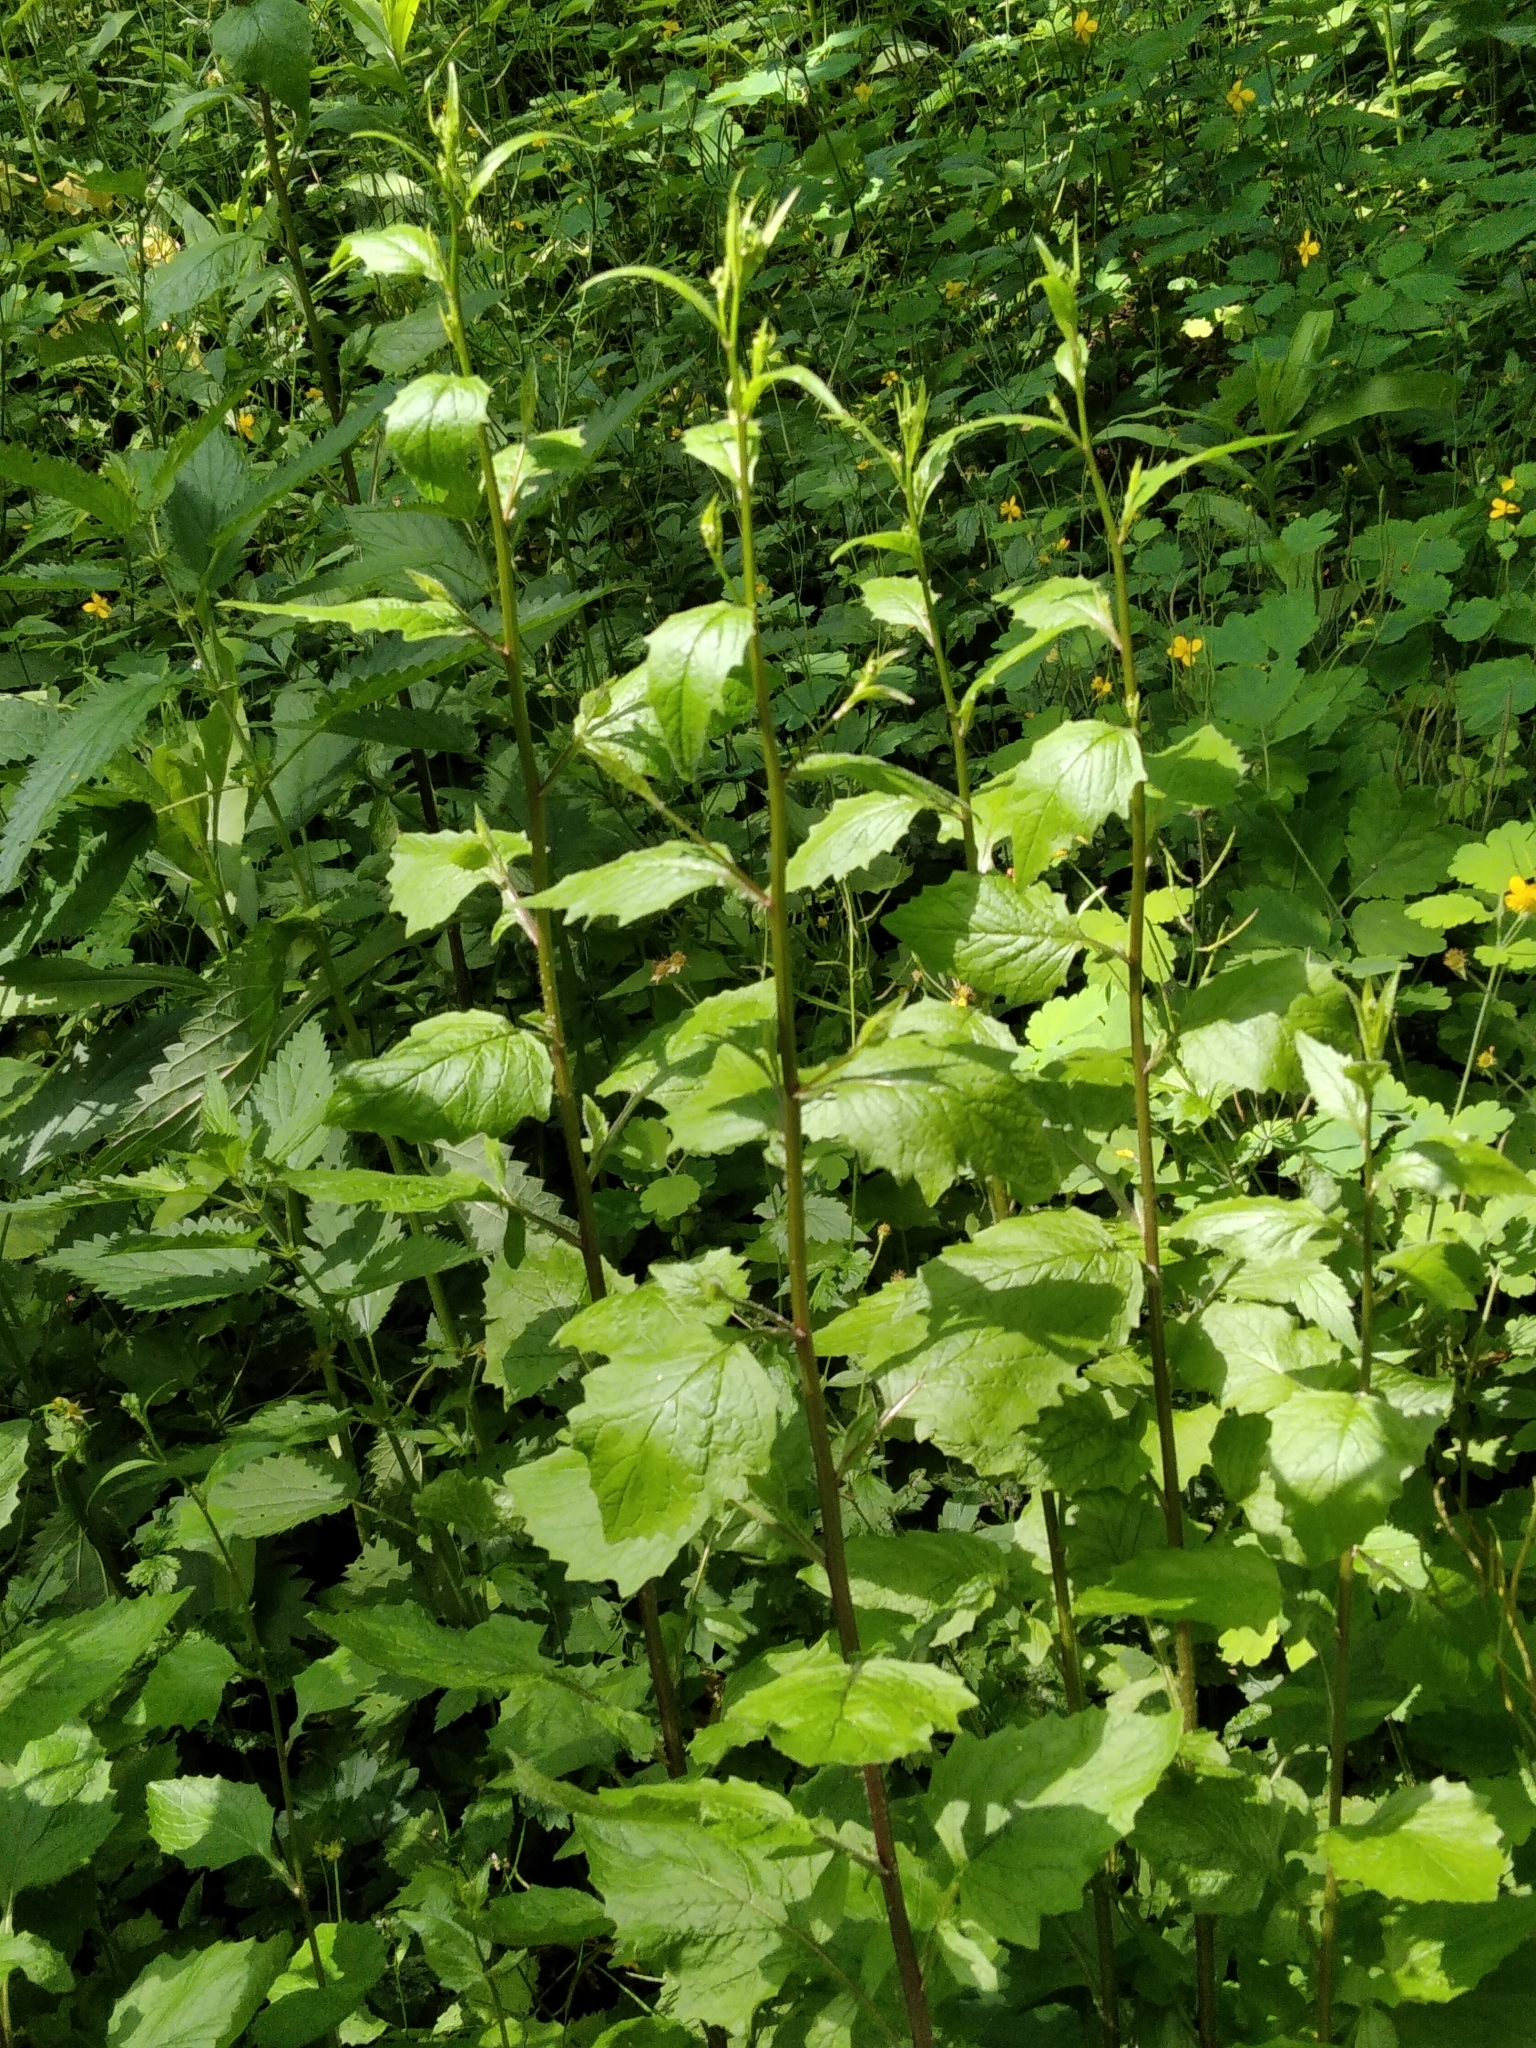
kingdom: Plantae
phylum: Tracheophyta
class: Magnoliopsida
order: Asterales
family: Asteraceae
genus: Lapsana
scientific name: Lapsana communis
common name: Nipplewort
